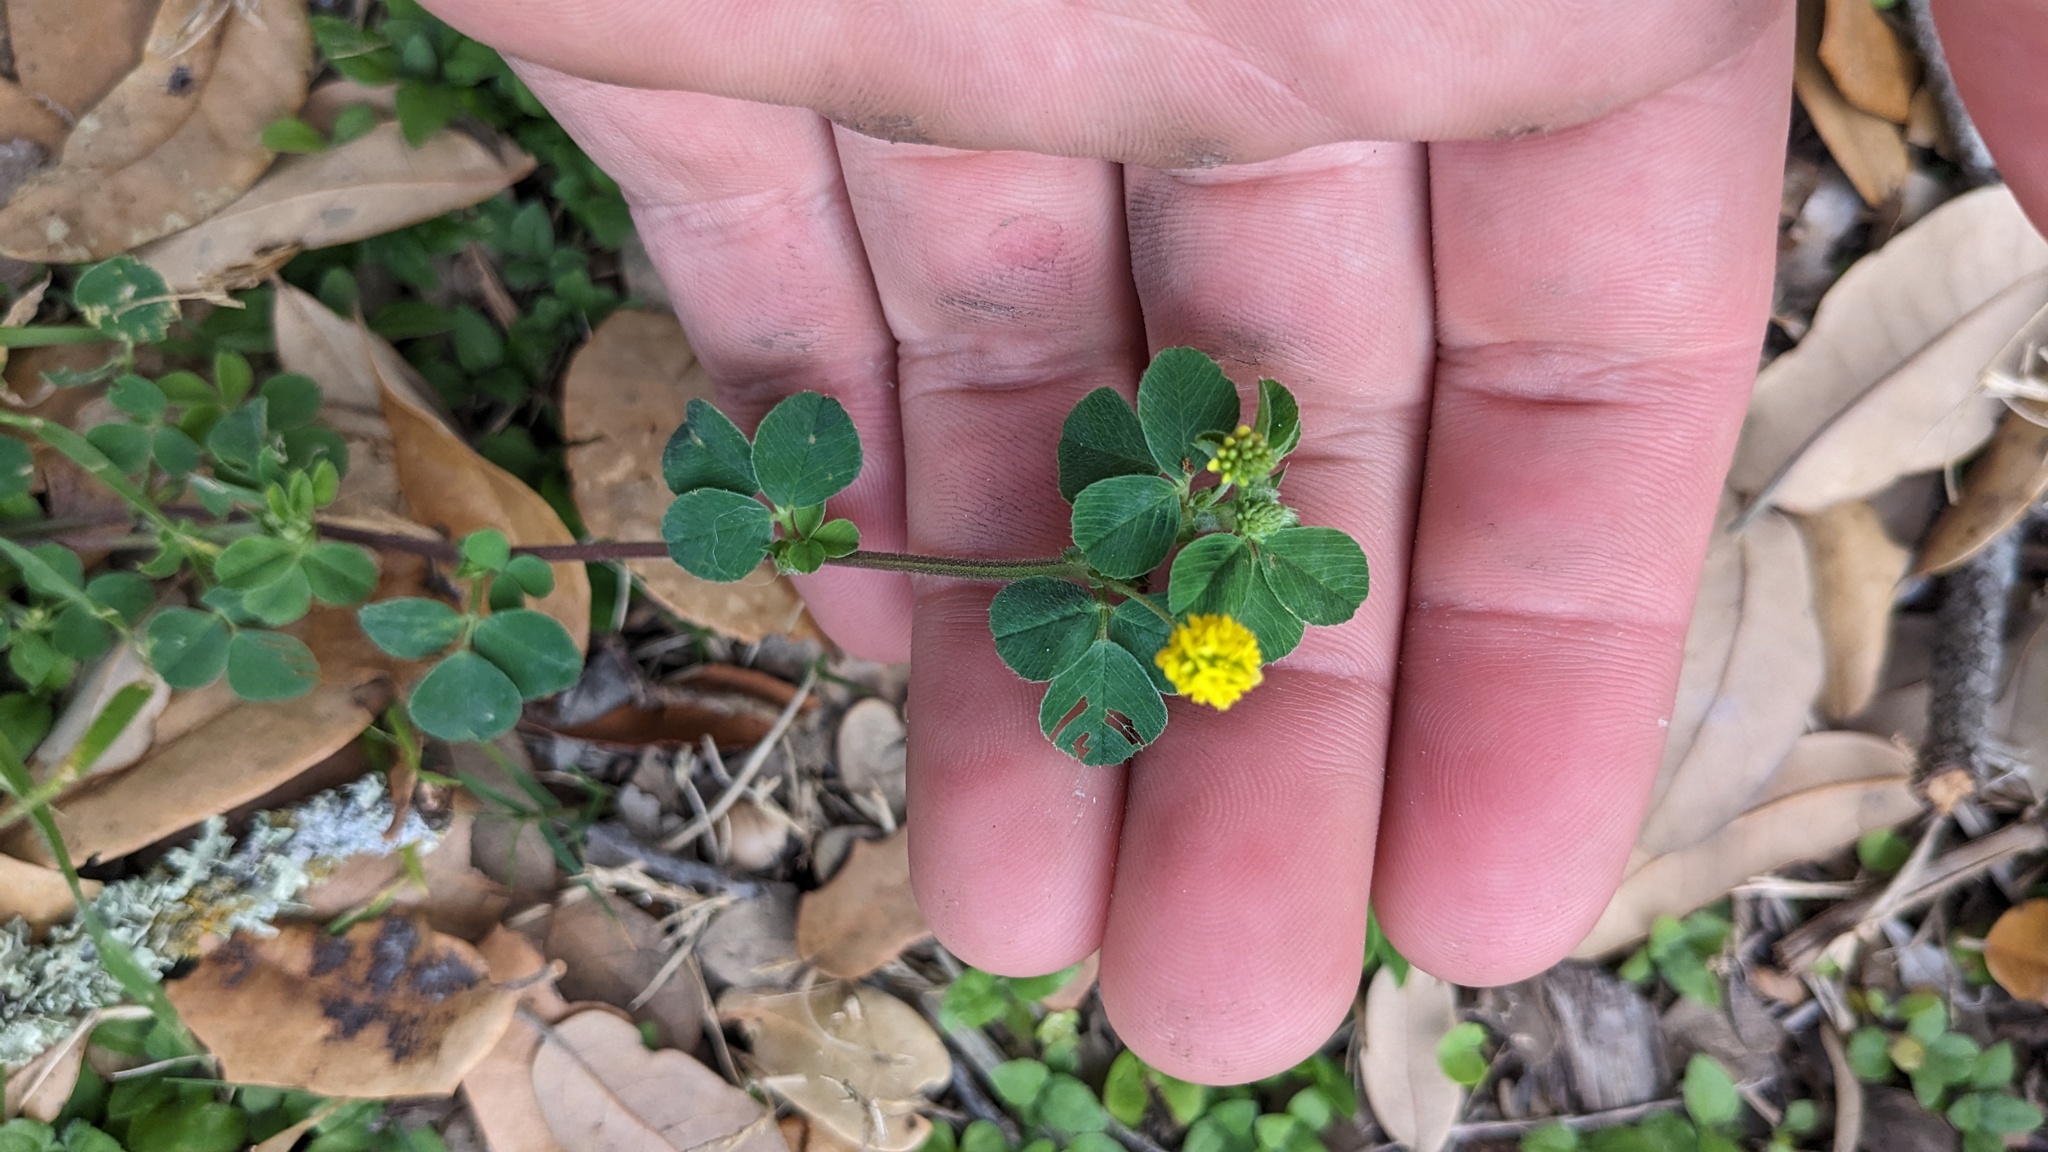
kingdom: Plantae
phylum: Tracheophyta
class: Magnoliopsida
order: Fabales
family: Fabaceae
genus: Medicago
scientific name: Medicago lupulina
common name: Black medick
